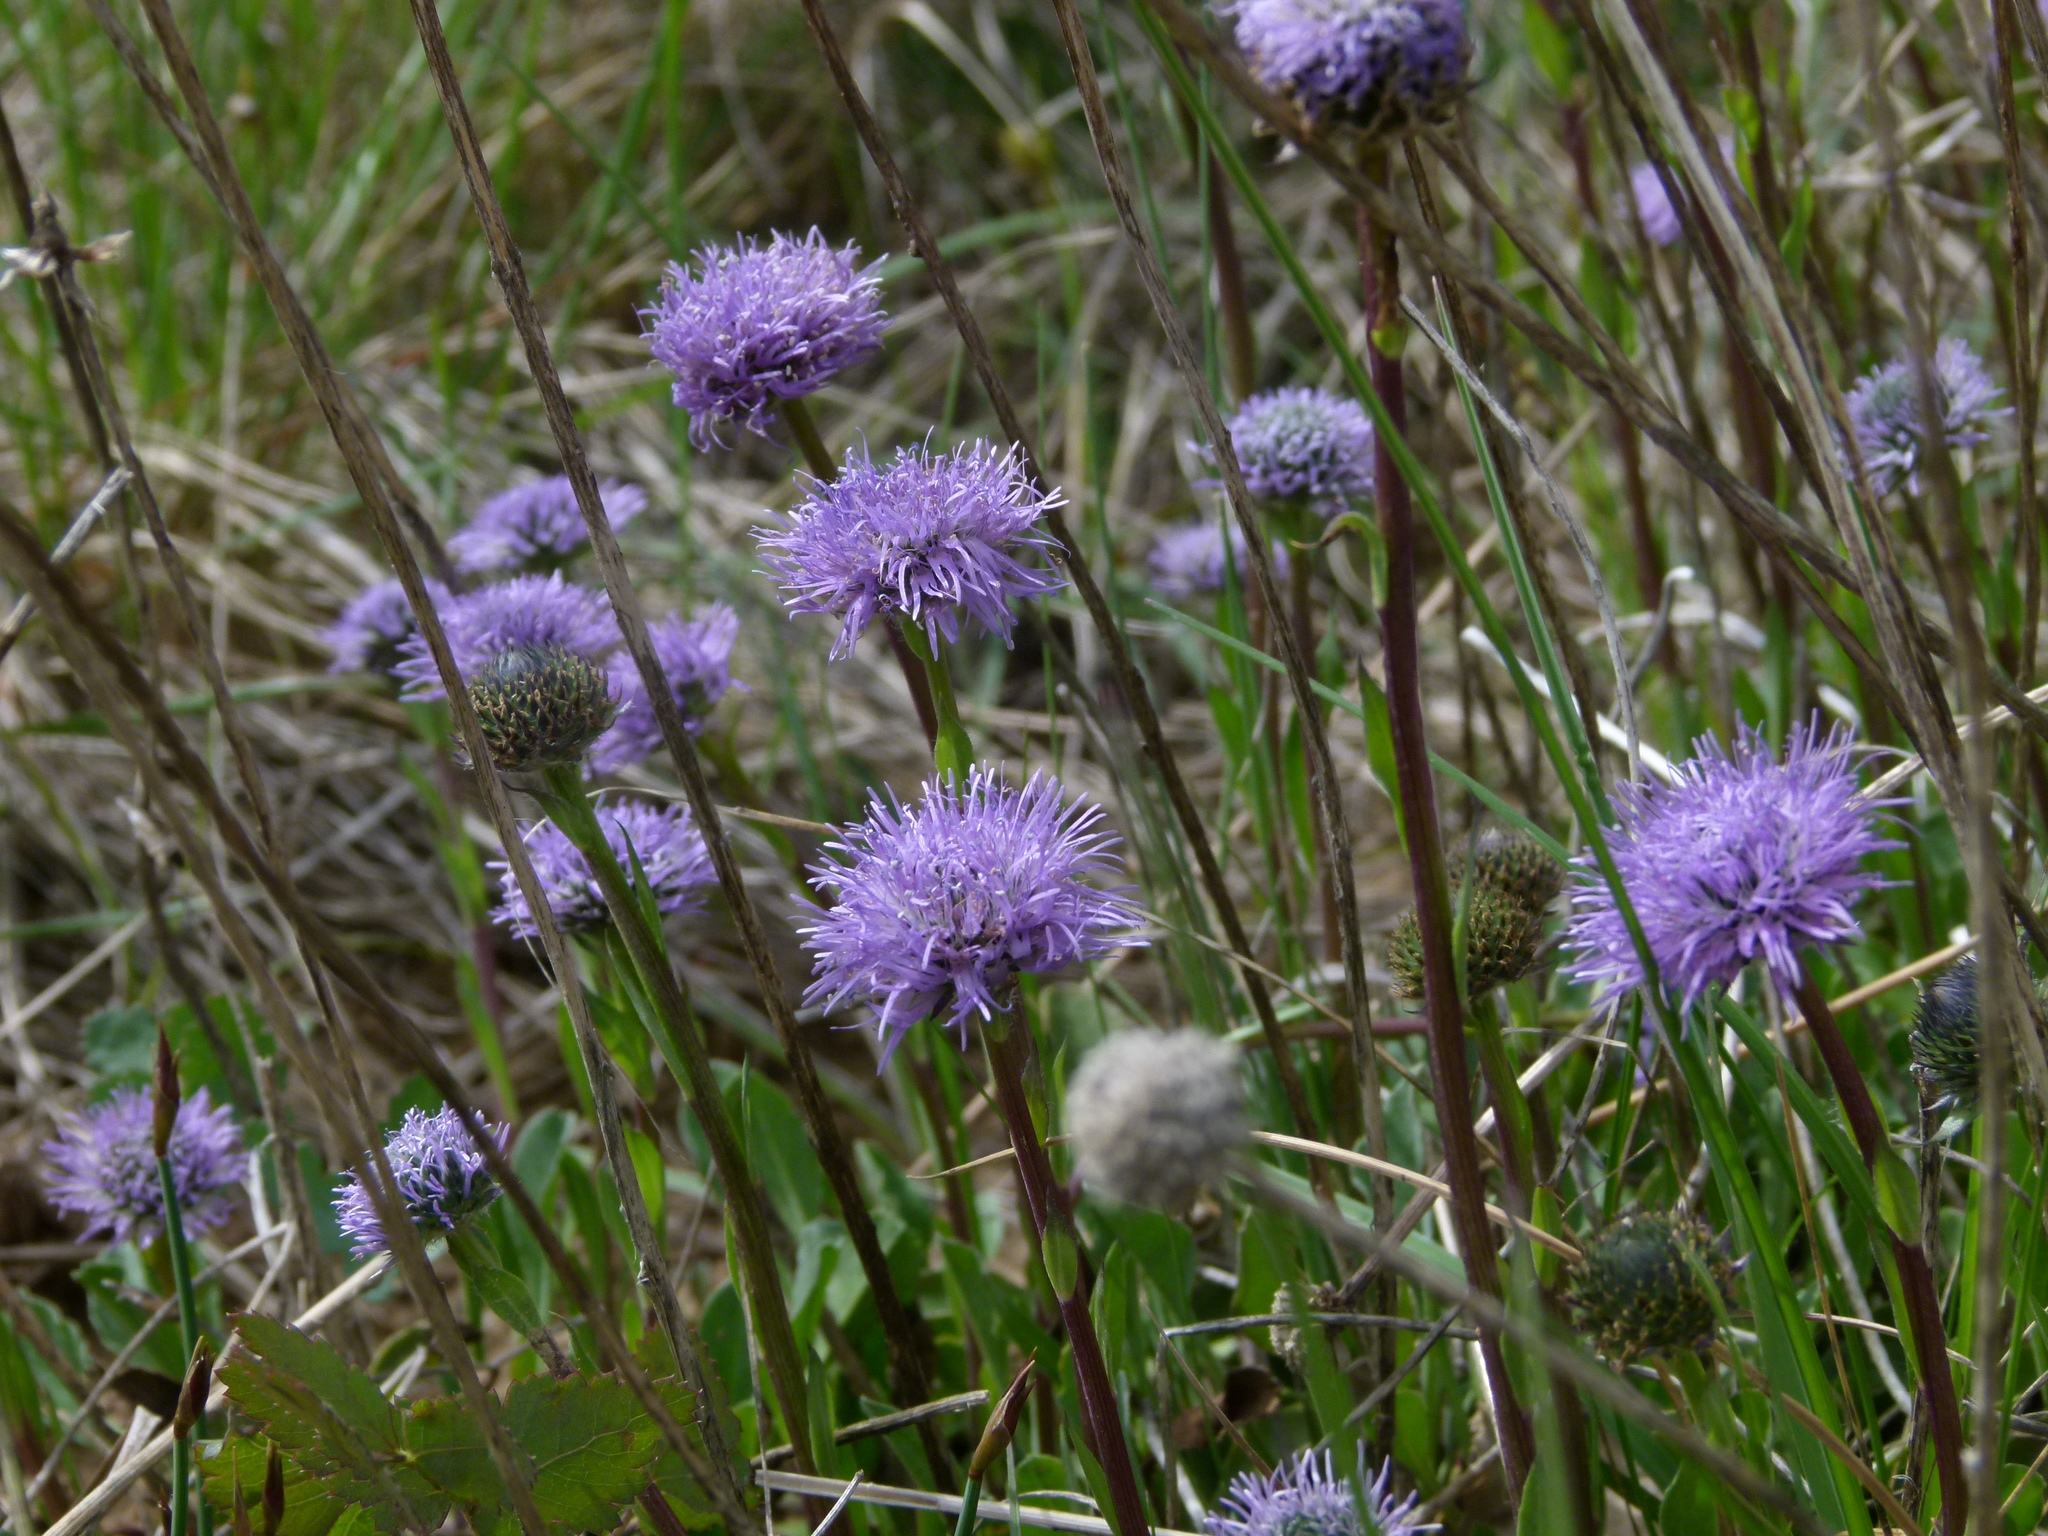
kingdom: Plantae
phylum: Tracheophyta
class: Magnoliopsida
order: Lamiales
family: Plantaginaceae
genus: Globularia
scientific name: Globularia vulgaris
